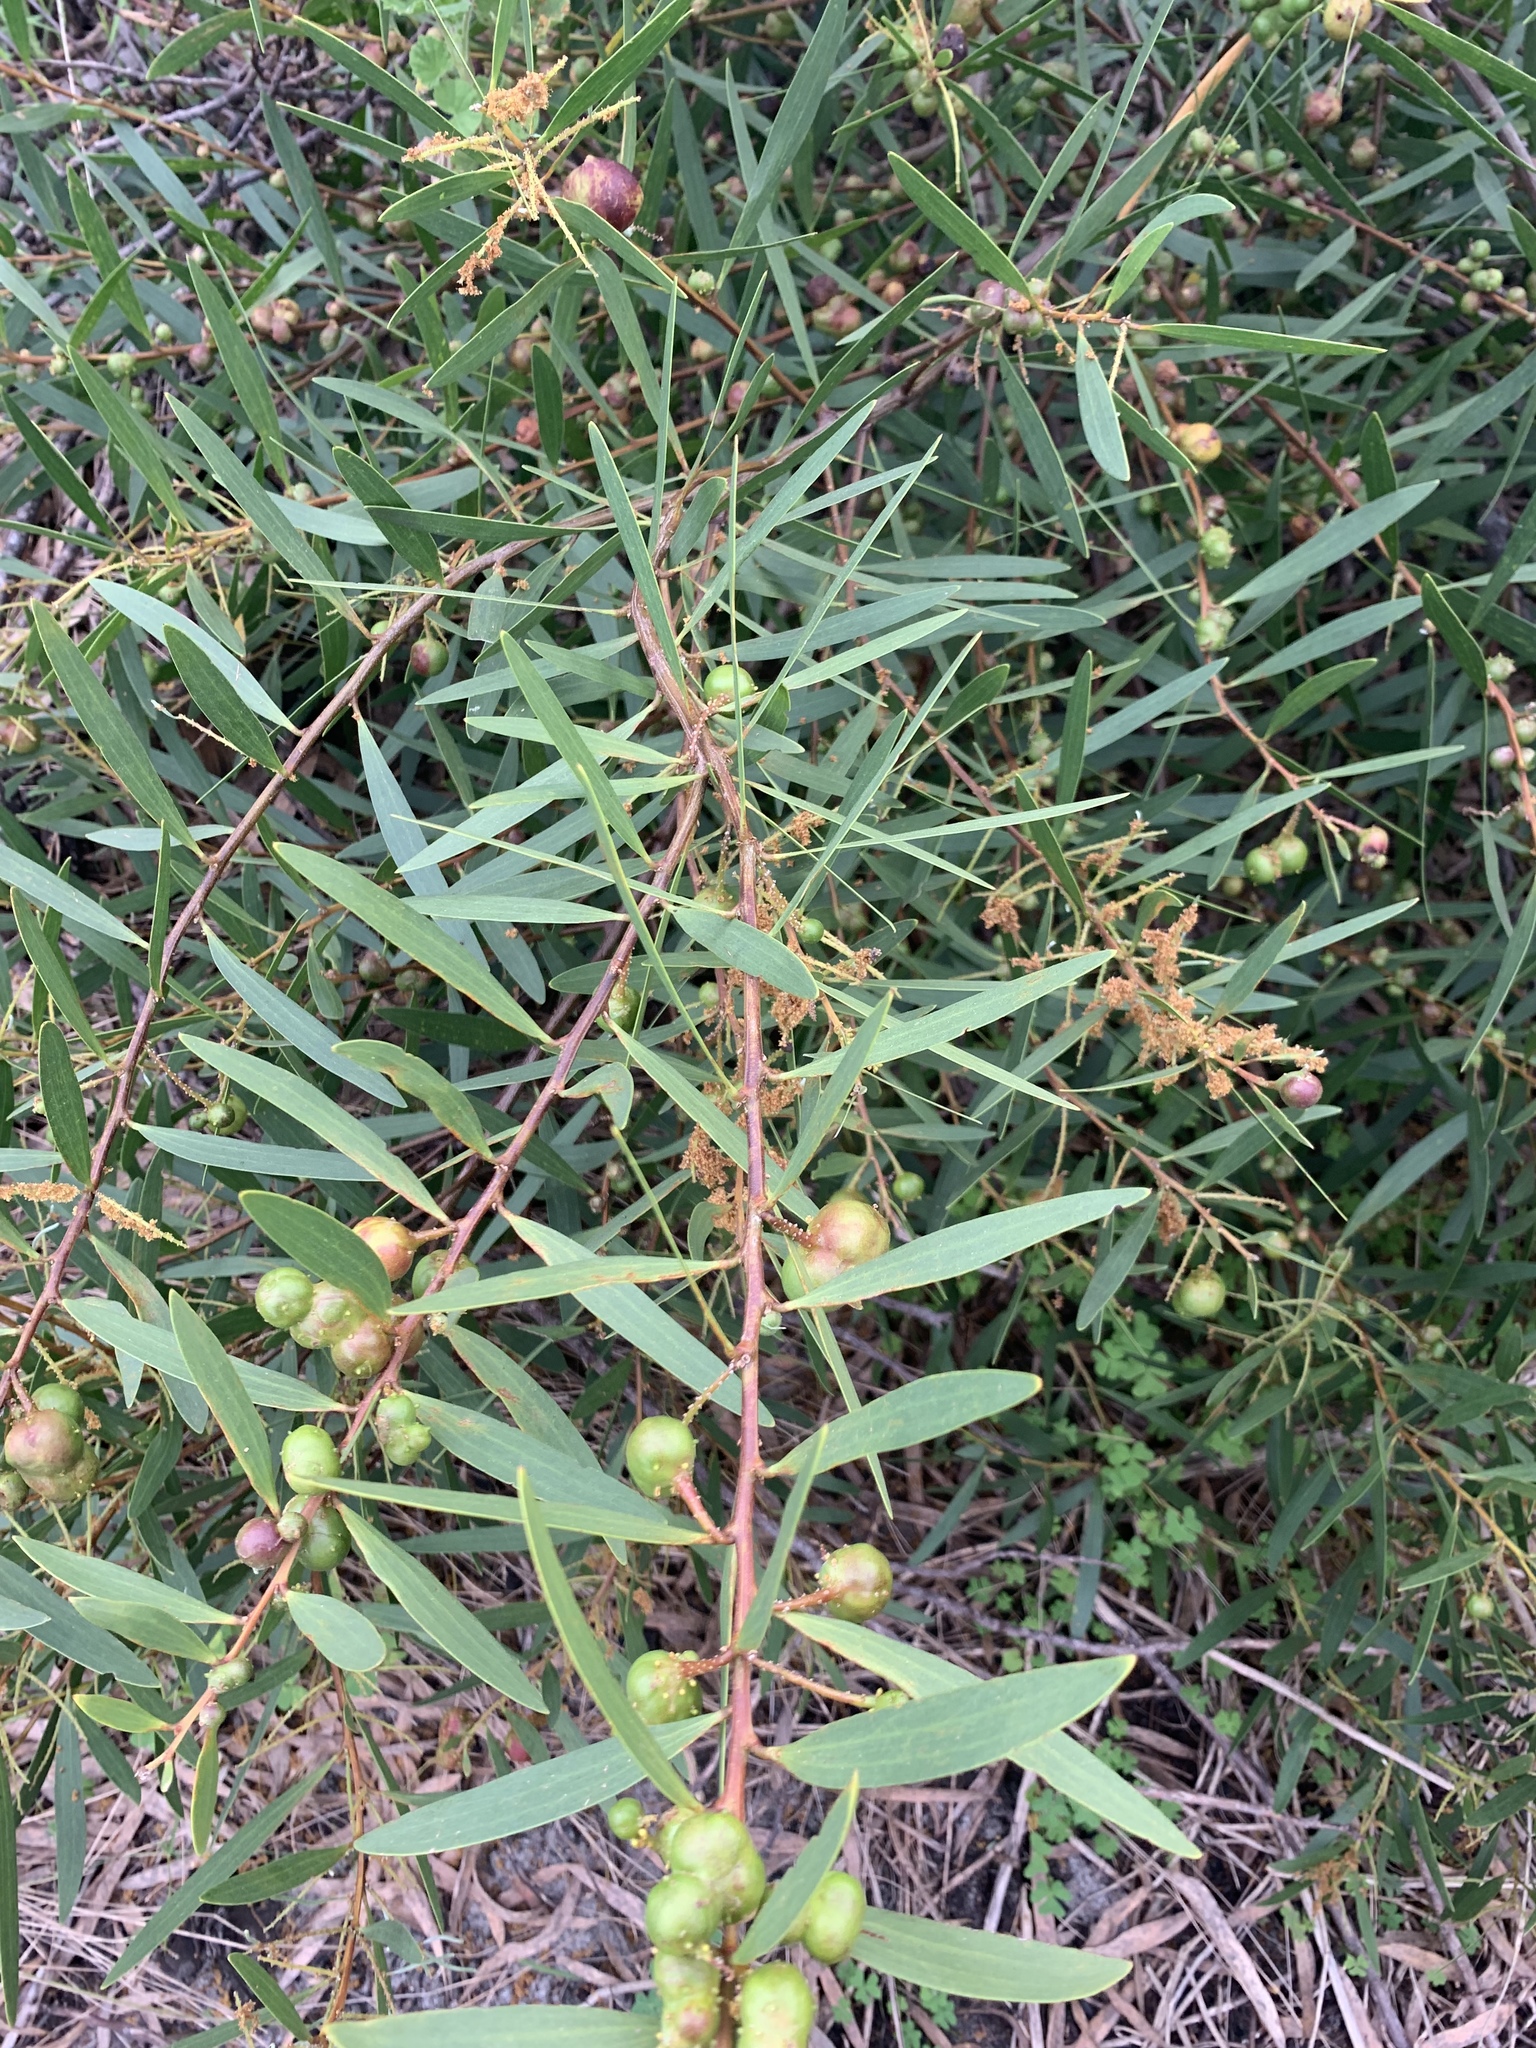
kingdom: Plantae
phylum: Tracheophyta
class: Magnoliopsida
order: Fabales
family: Fabaceae
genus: Acacia
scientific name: Acacia longifolia
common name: Sydney golden wattle
